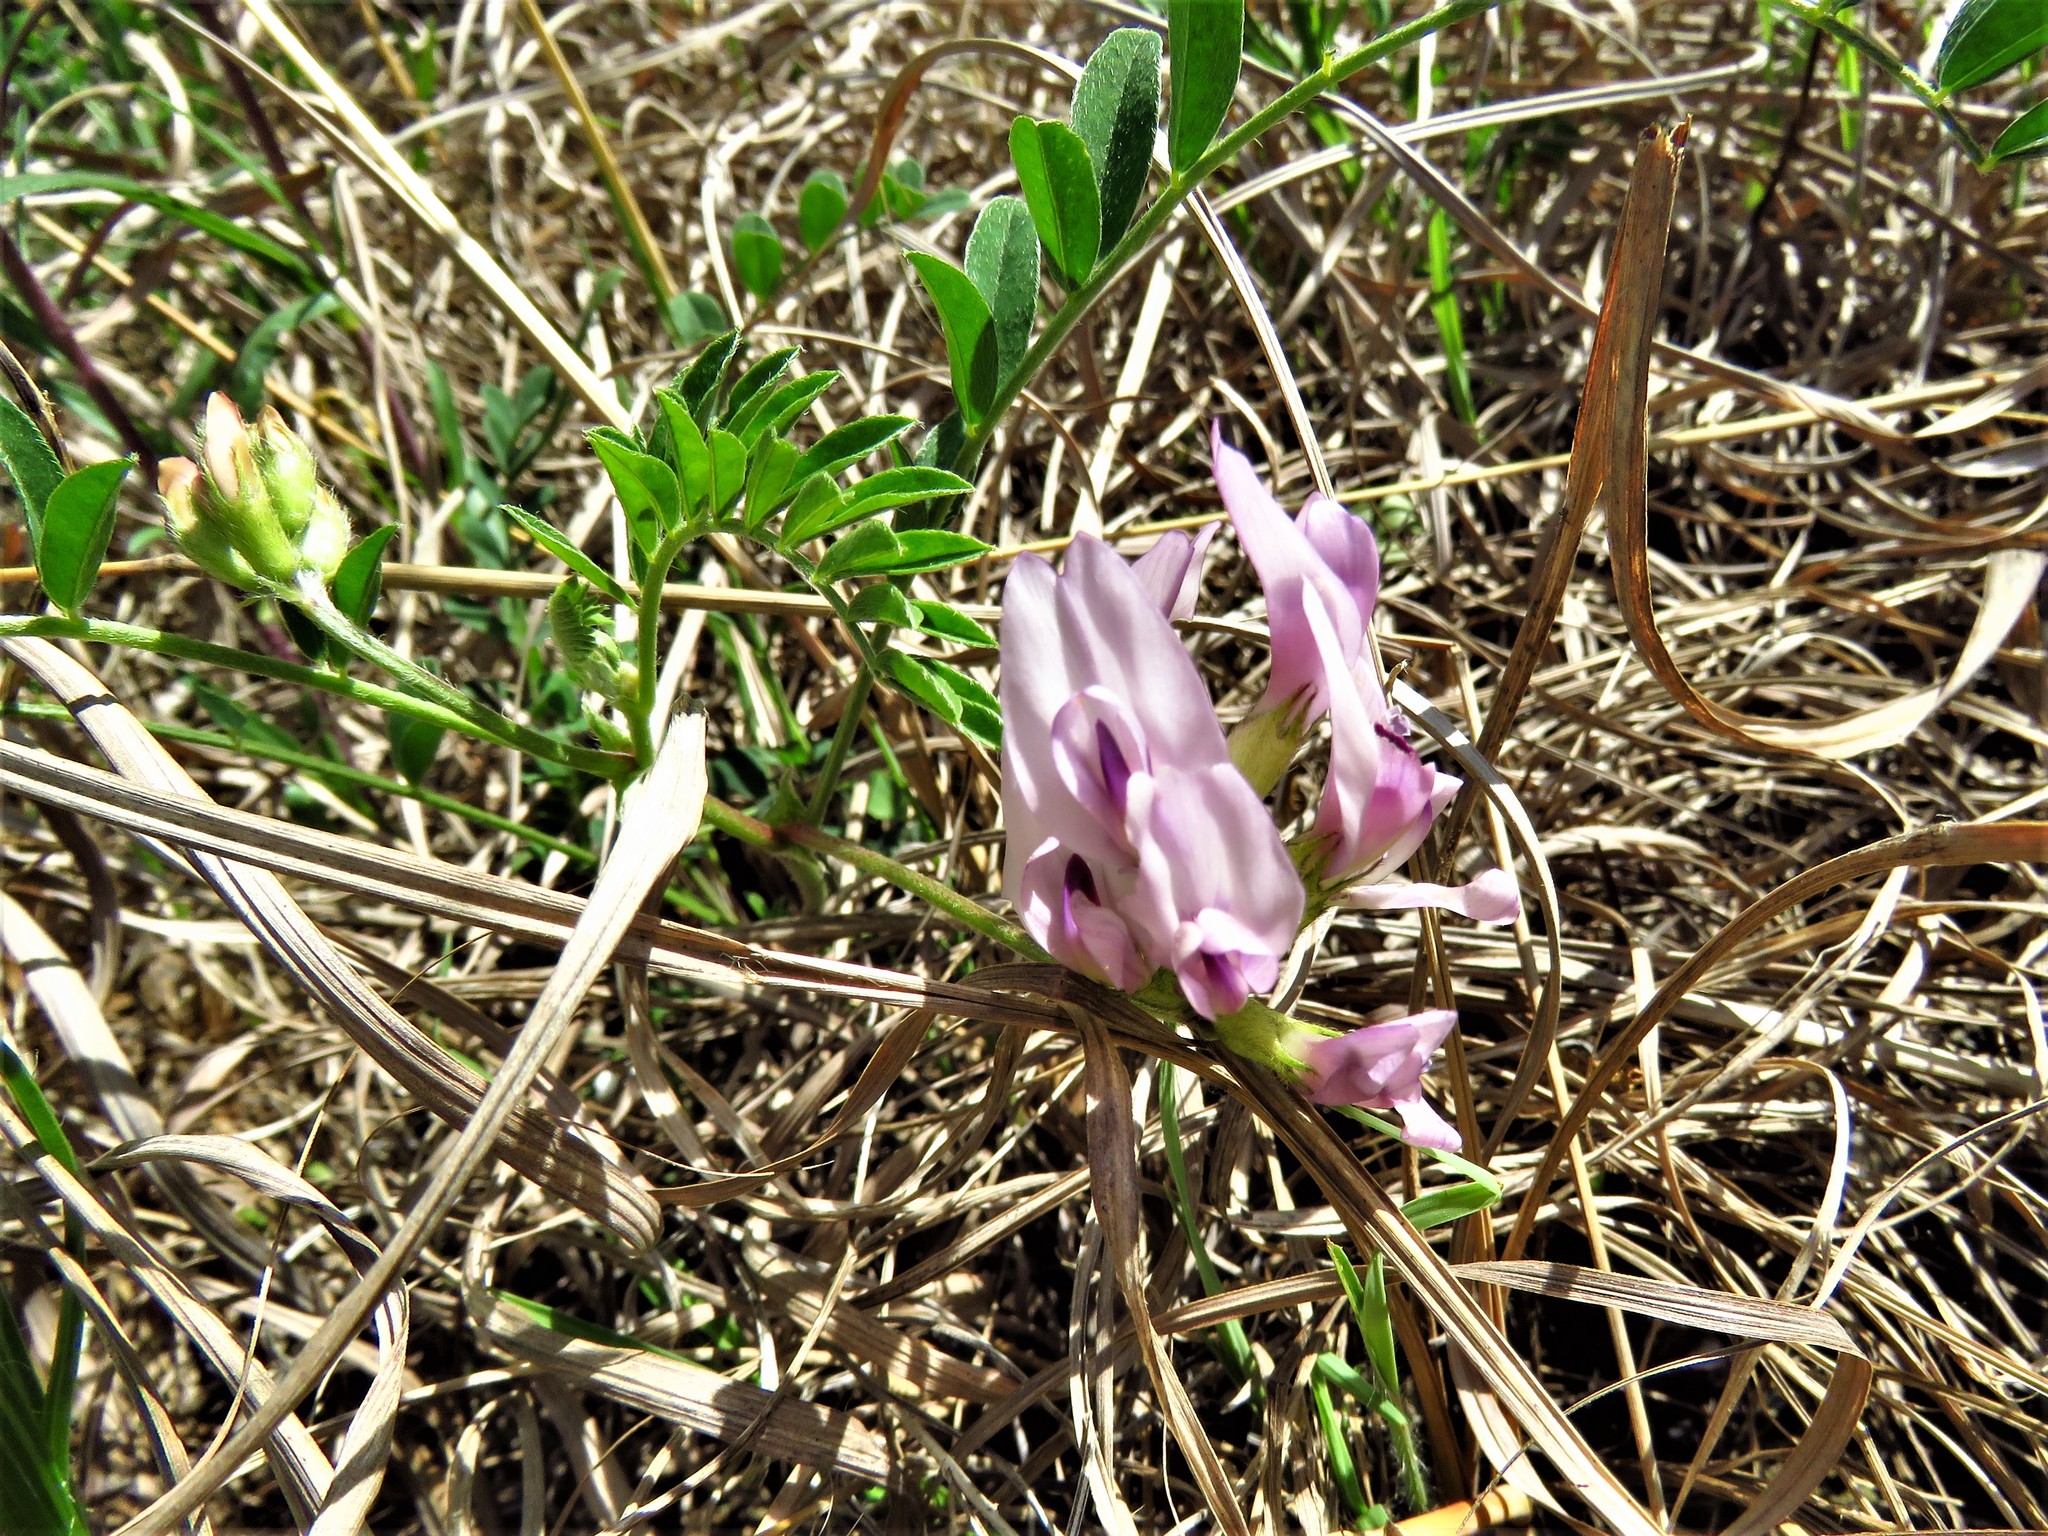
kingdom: Plantae
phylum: Tracheophyta
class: Magnoliopsida
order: Fabales
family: Fabaceae
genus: Astragalus
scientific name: Astragalus crassicarpus
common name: Ground-plum milk-vetch
